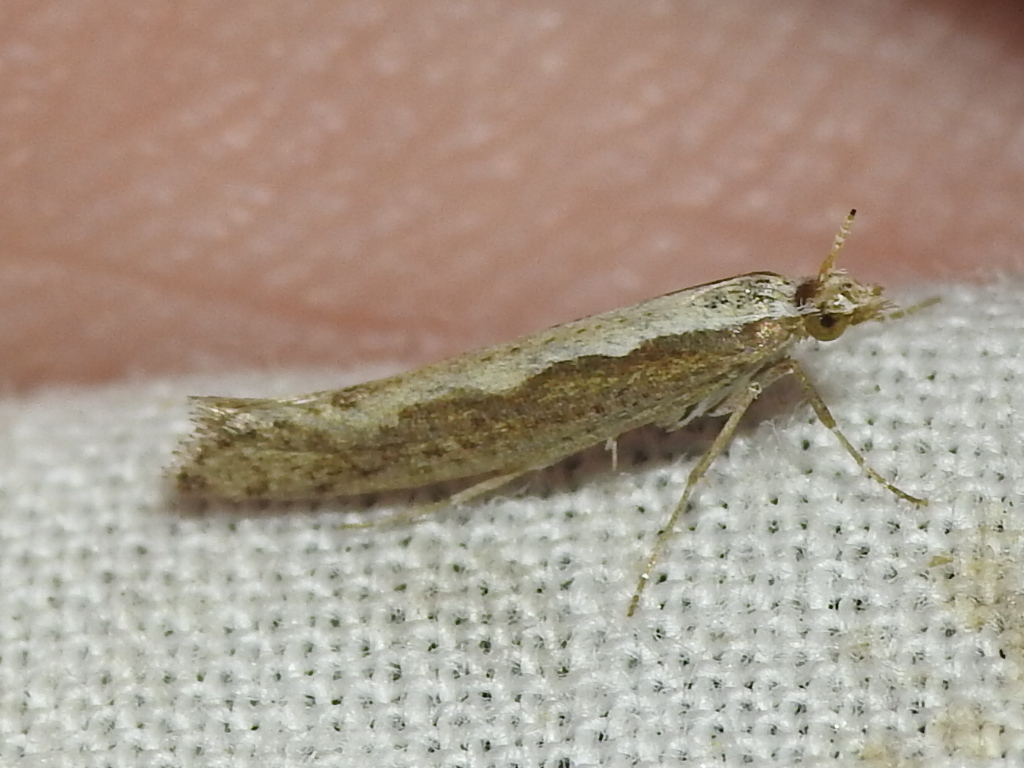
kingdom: Animalia
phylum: Arthropoda
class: Insecta
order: Lepidoptera
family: Plutellidae
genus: Plutella
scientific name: Plutella xylostella
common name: Diamond-back moth
